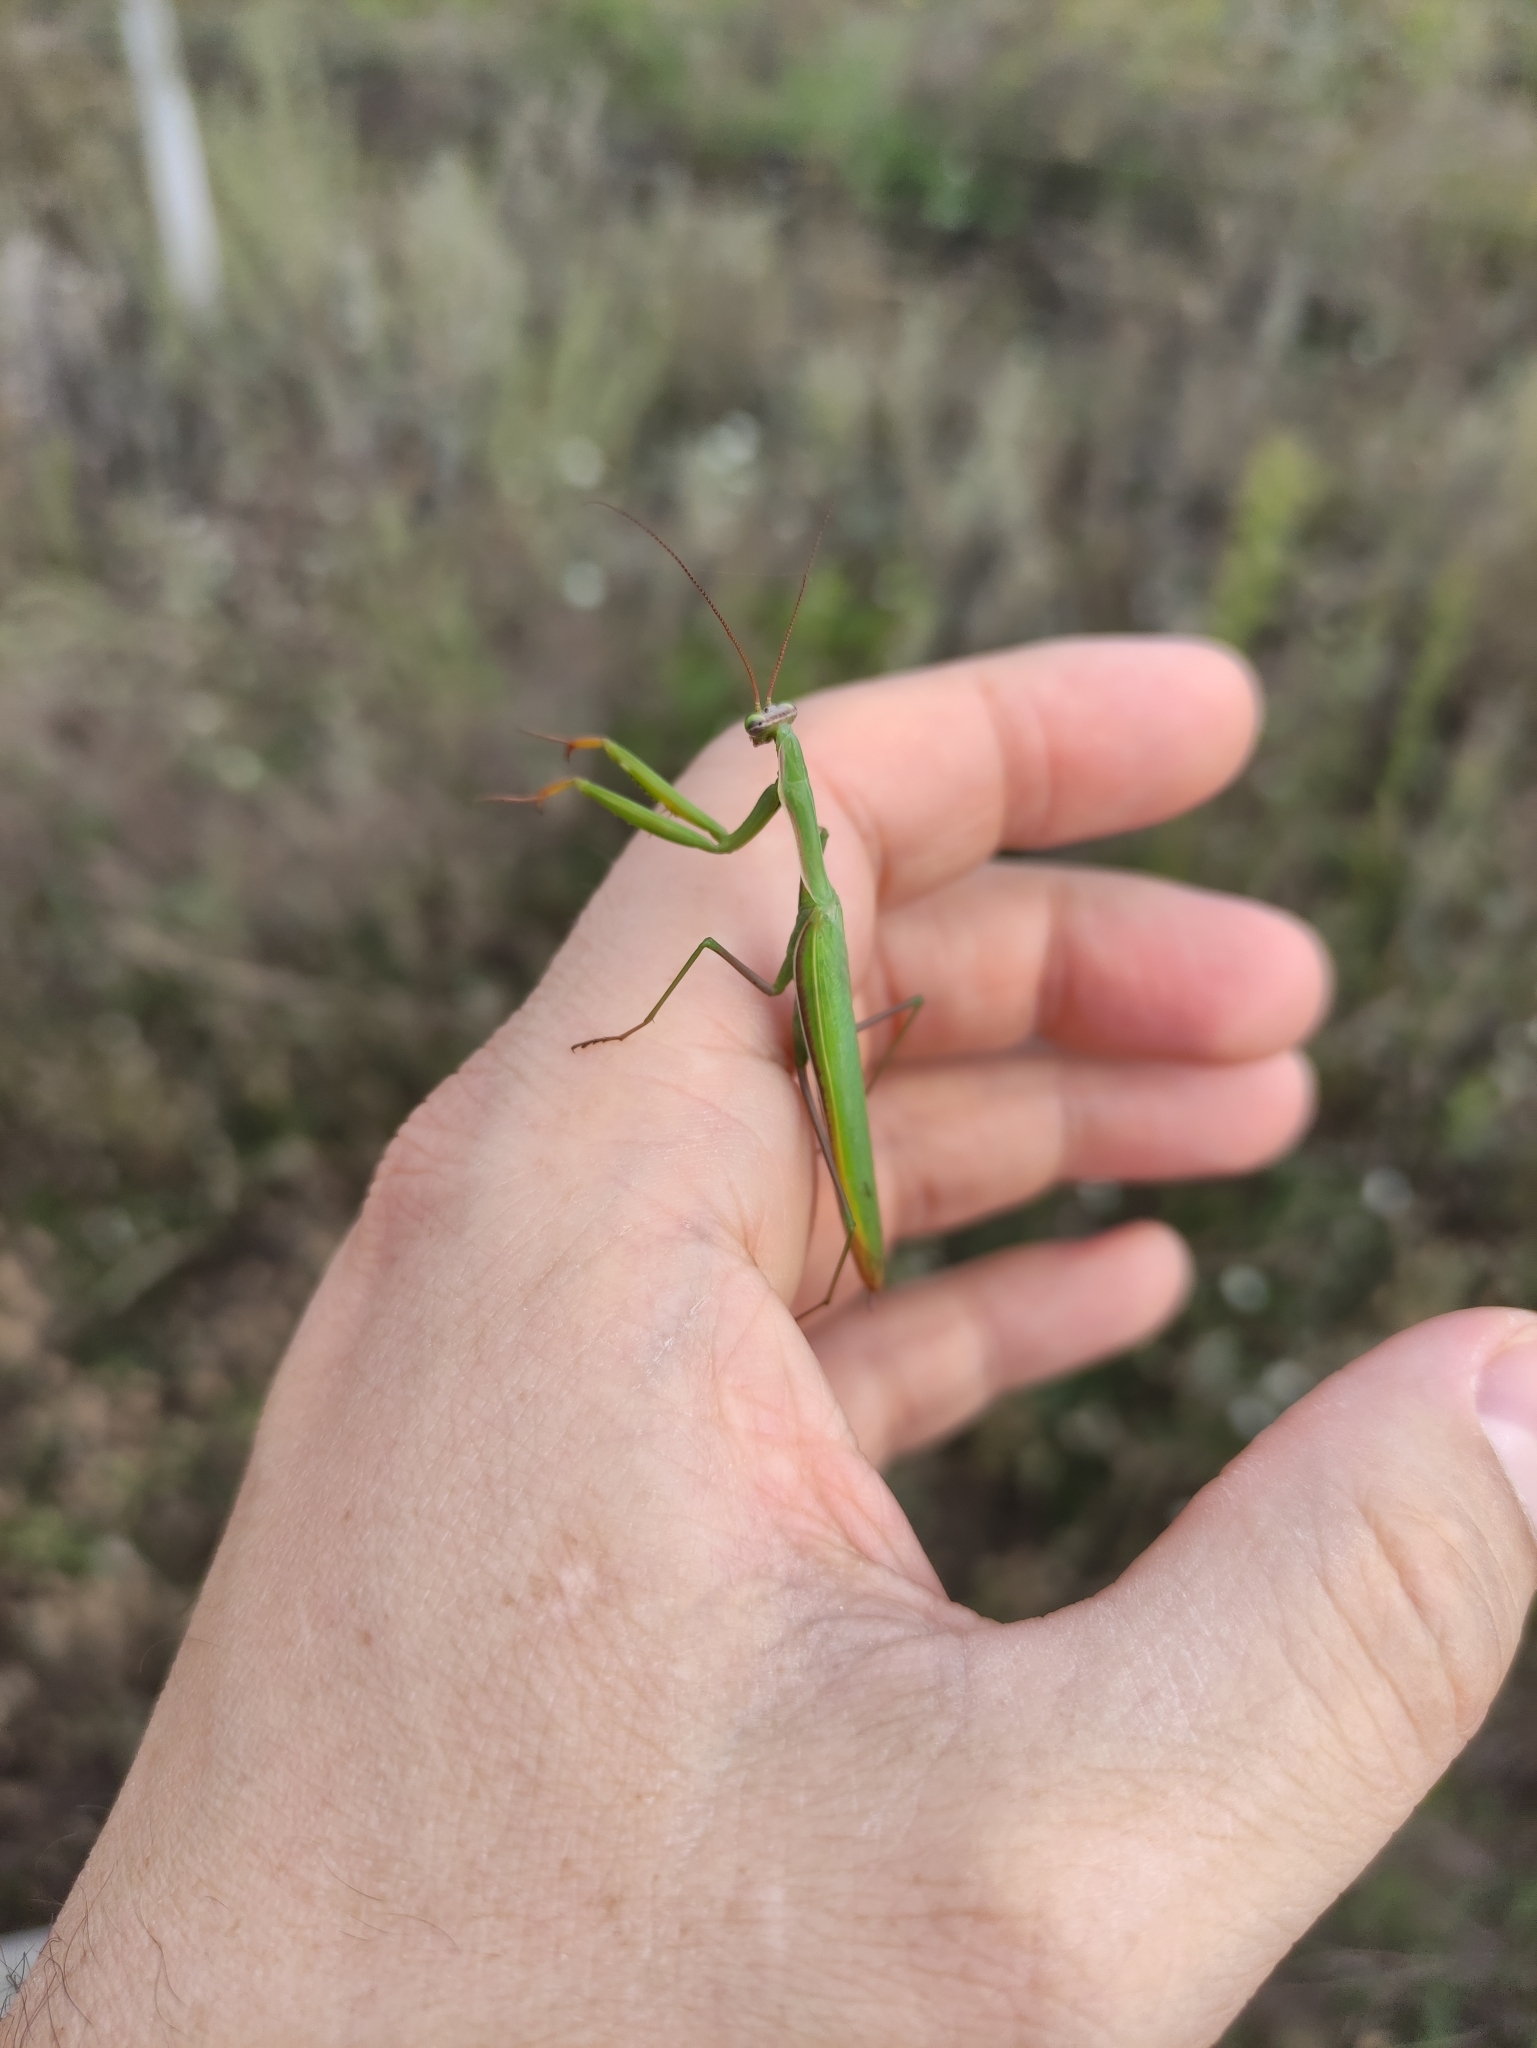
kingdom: Animalia
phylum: Arthropoda
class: Insecta
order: Mantodea
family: Mantidae
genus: Mantis
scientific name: Mantis religiosa
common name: Praying mantis
